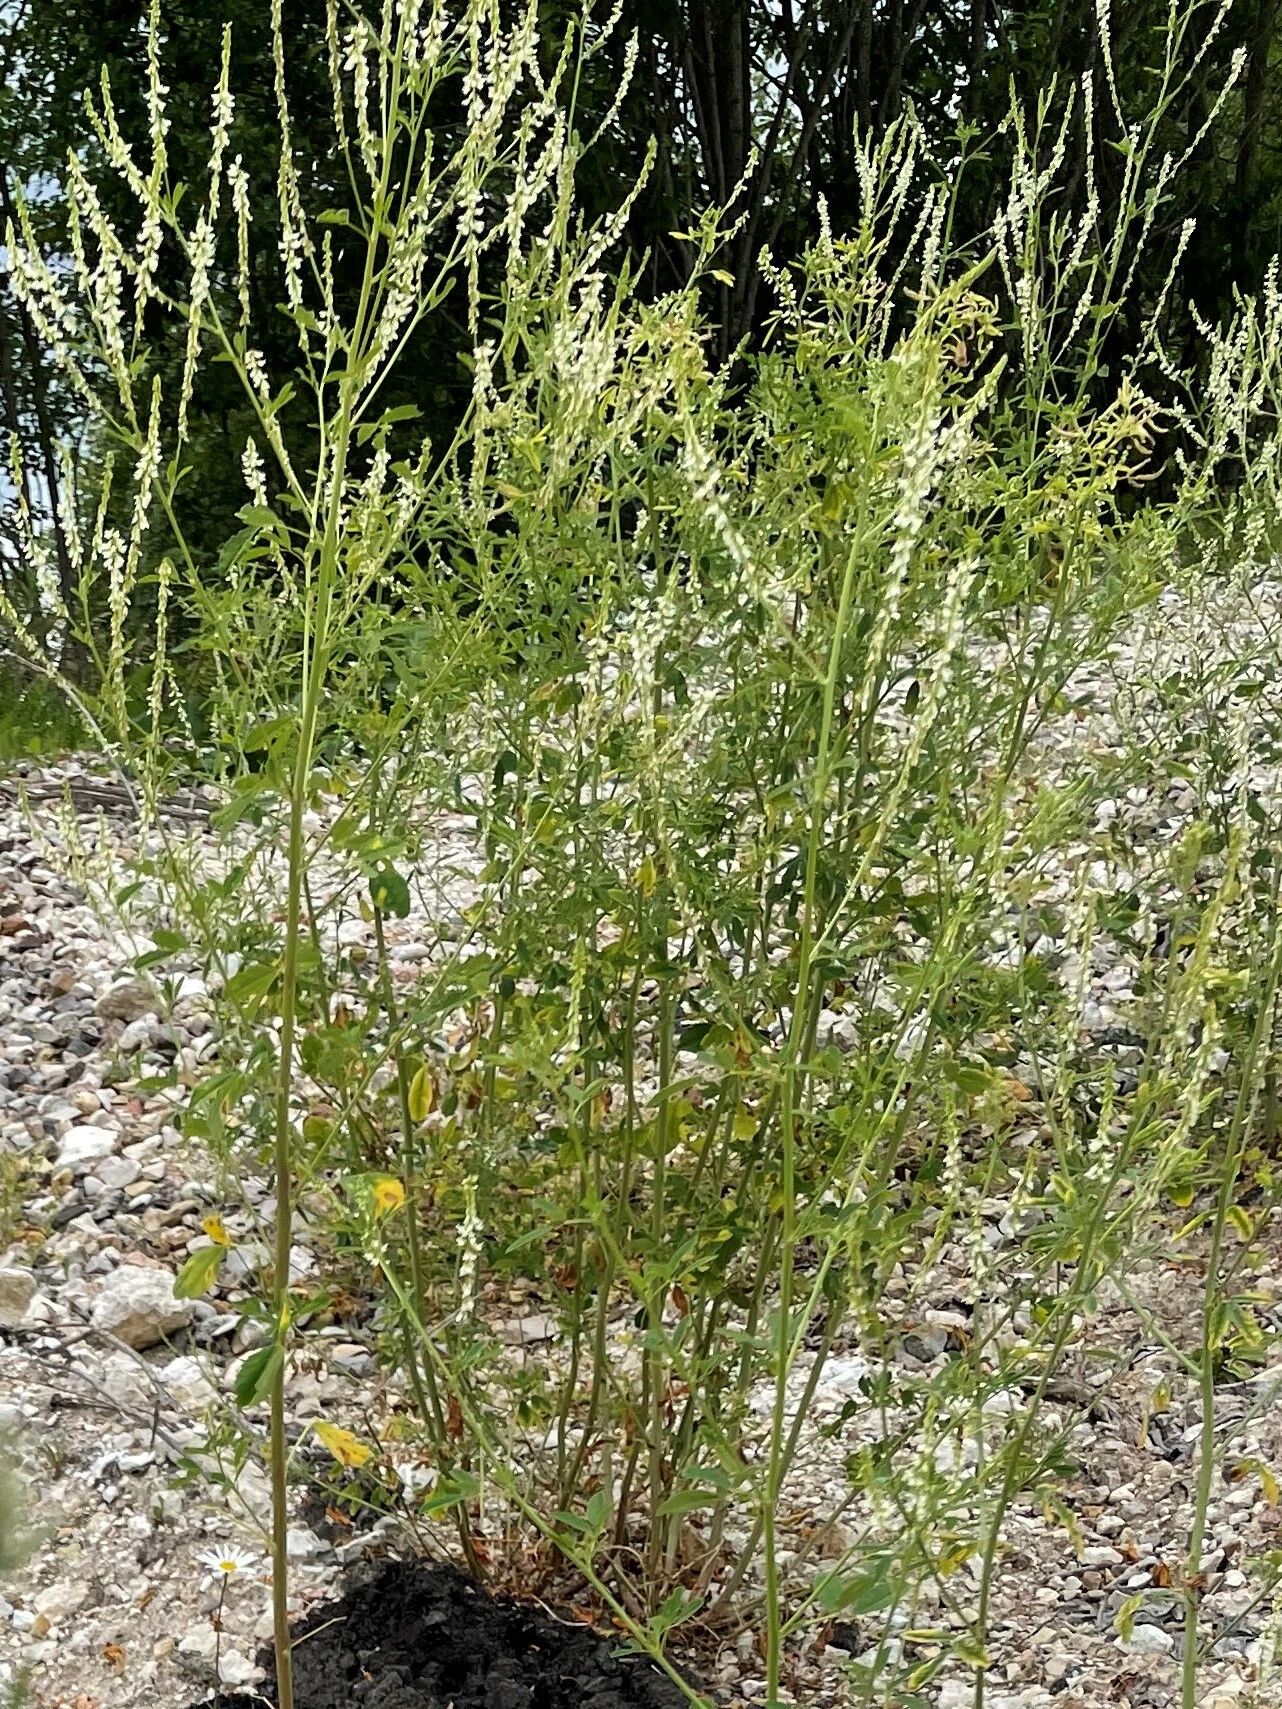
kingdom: Plantae
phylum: Tracheophyta
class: Magnoliopsida
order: Fabales
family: Fabaceae
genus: Melilotus
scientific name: Melilotus albus
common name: White melilot
